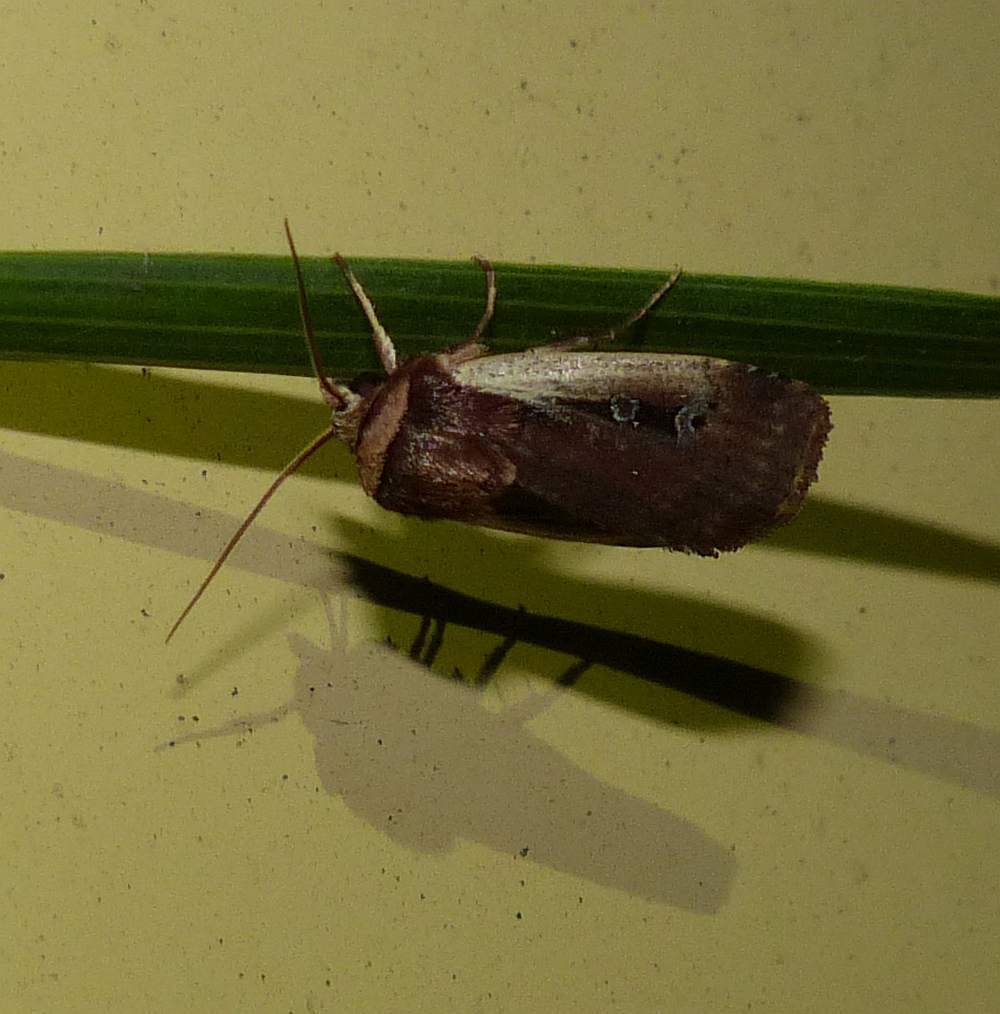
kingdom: Animalia
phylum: Arthropoda
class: Insecta
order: Lepidoptera
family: Noctuidae
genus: Ochropleura
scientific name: Ochropleura implecta
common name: Flame-shouldered dart
